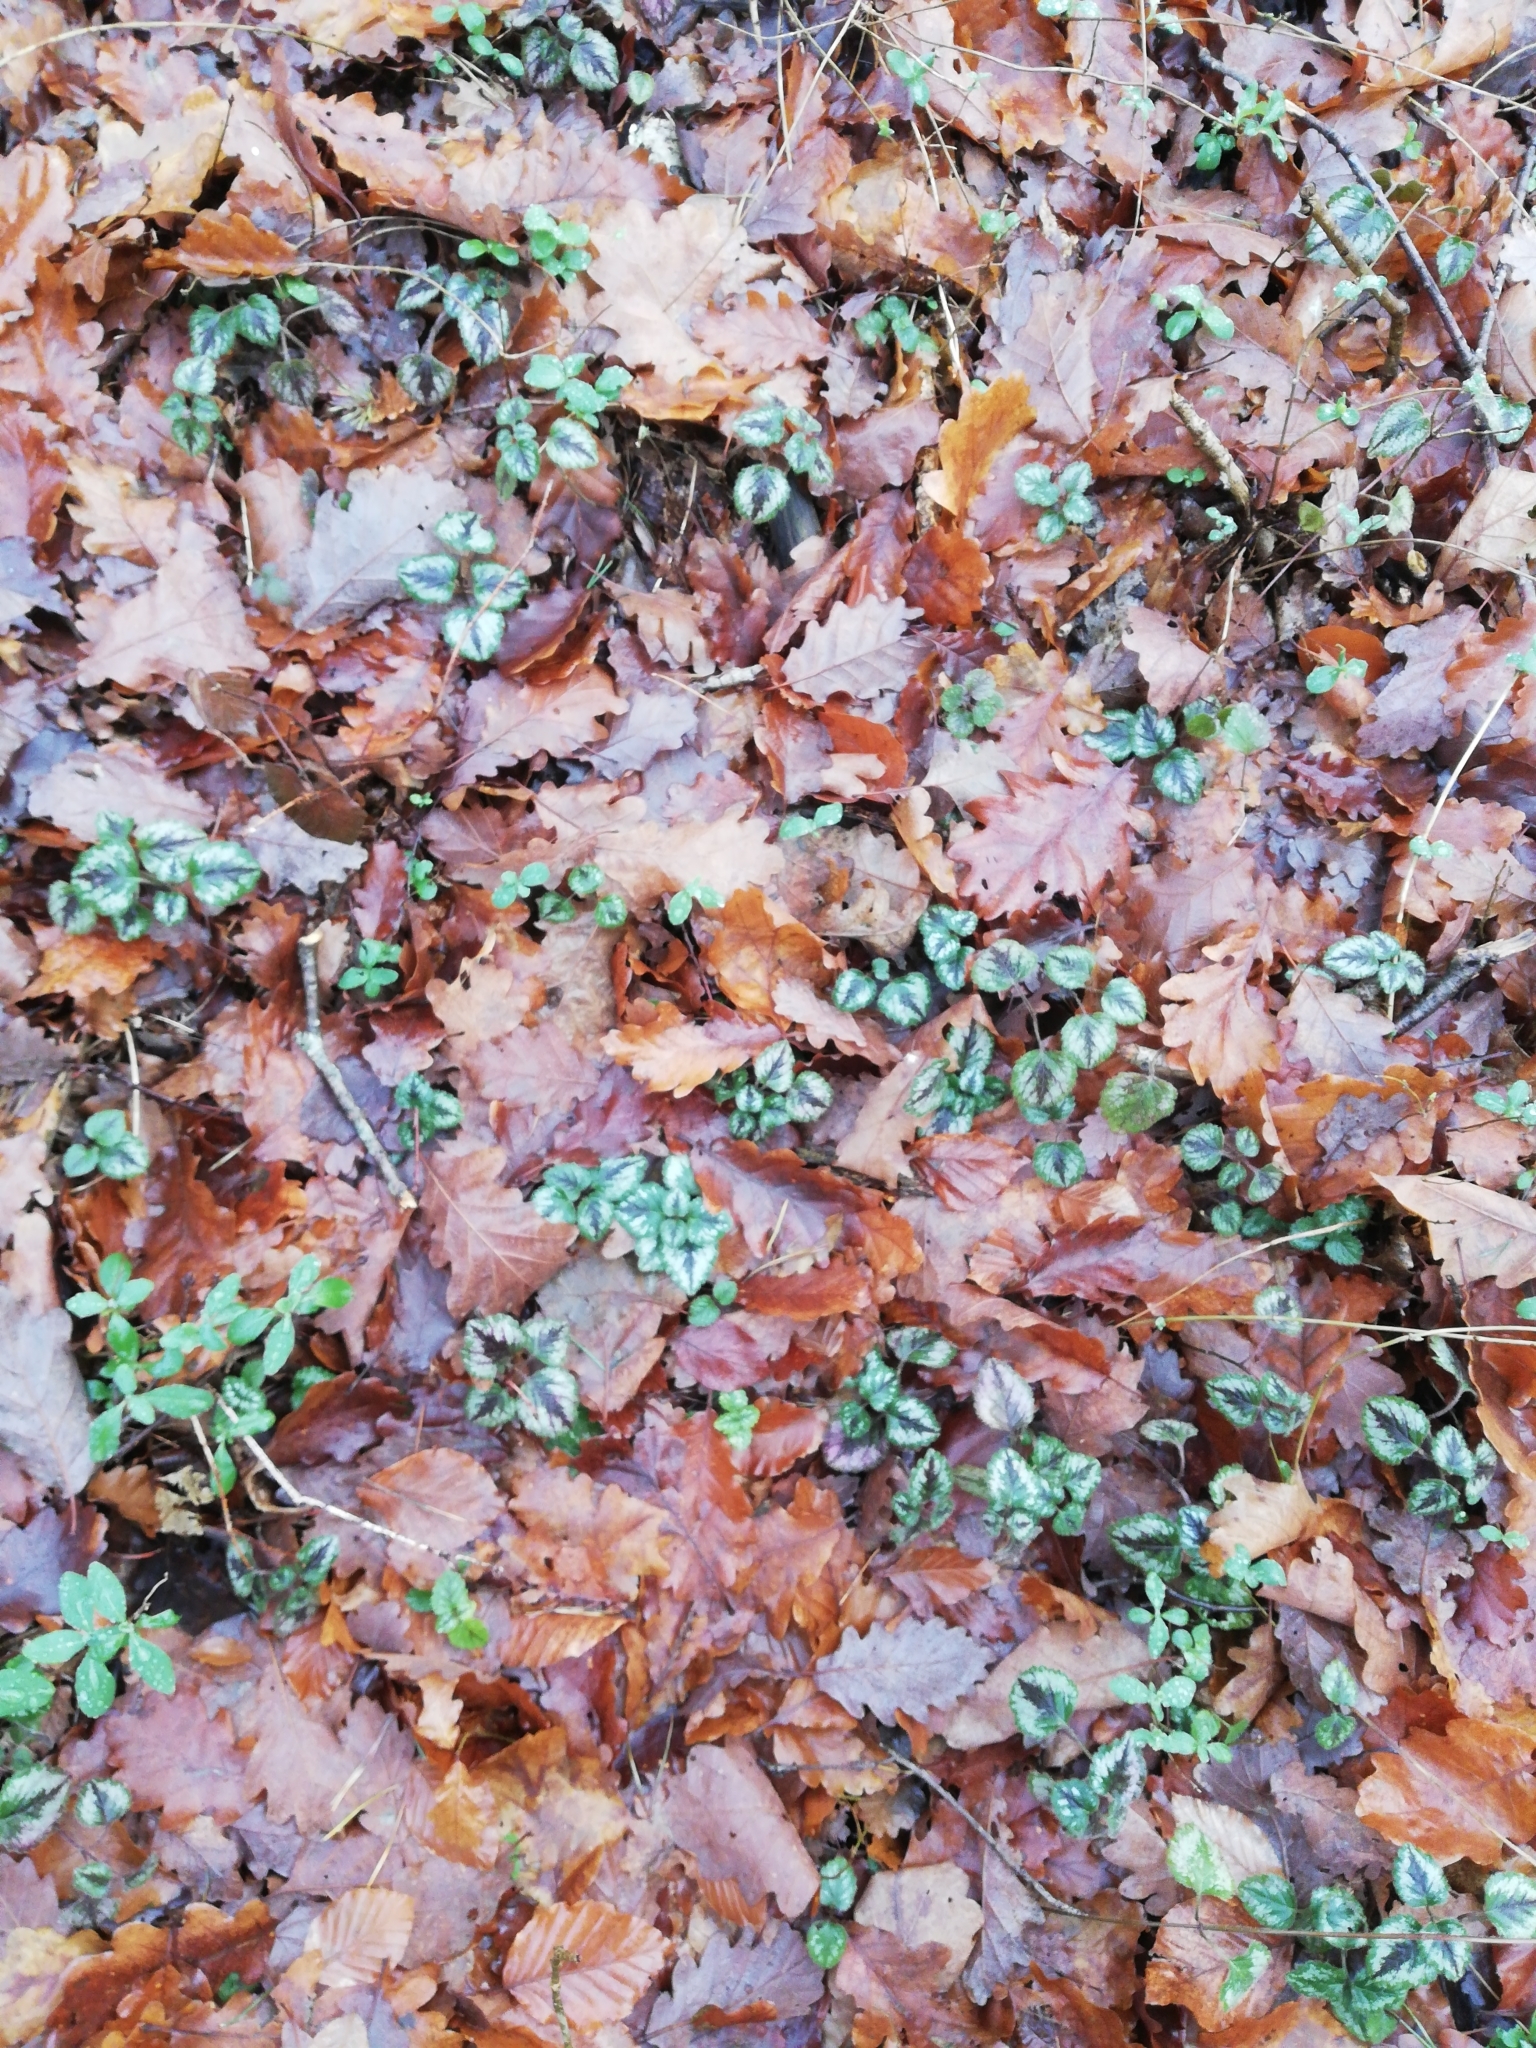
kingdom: Plantae
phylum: Tracheophyta
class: Magnoliopsida
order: Lamiales
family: Lamiaceae
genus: Lamium
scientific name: Lamium galeobdolon
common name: Yellow archangel
